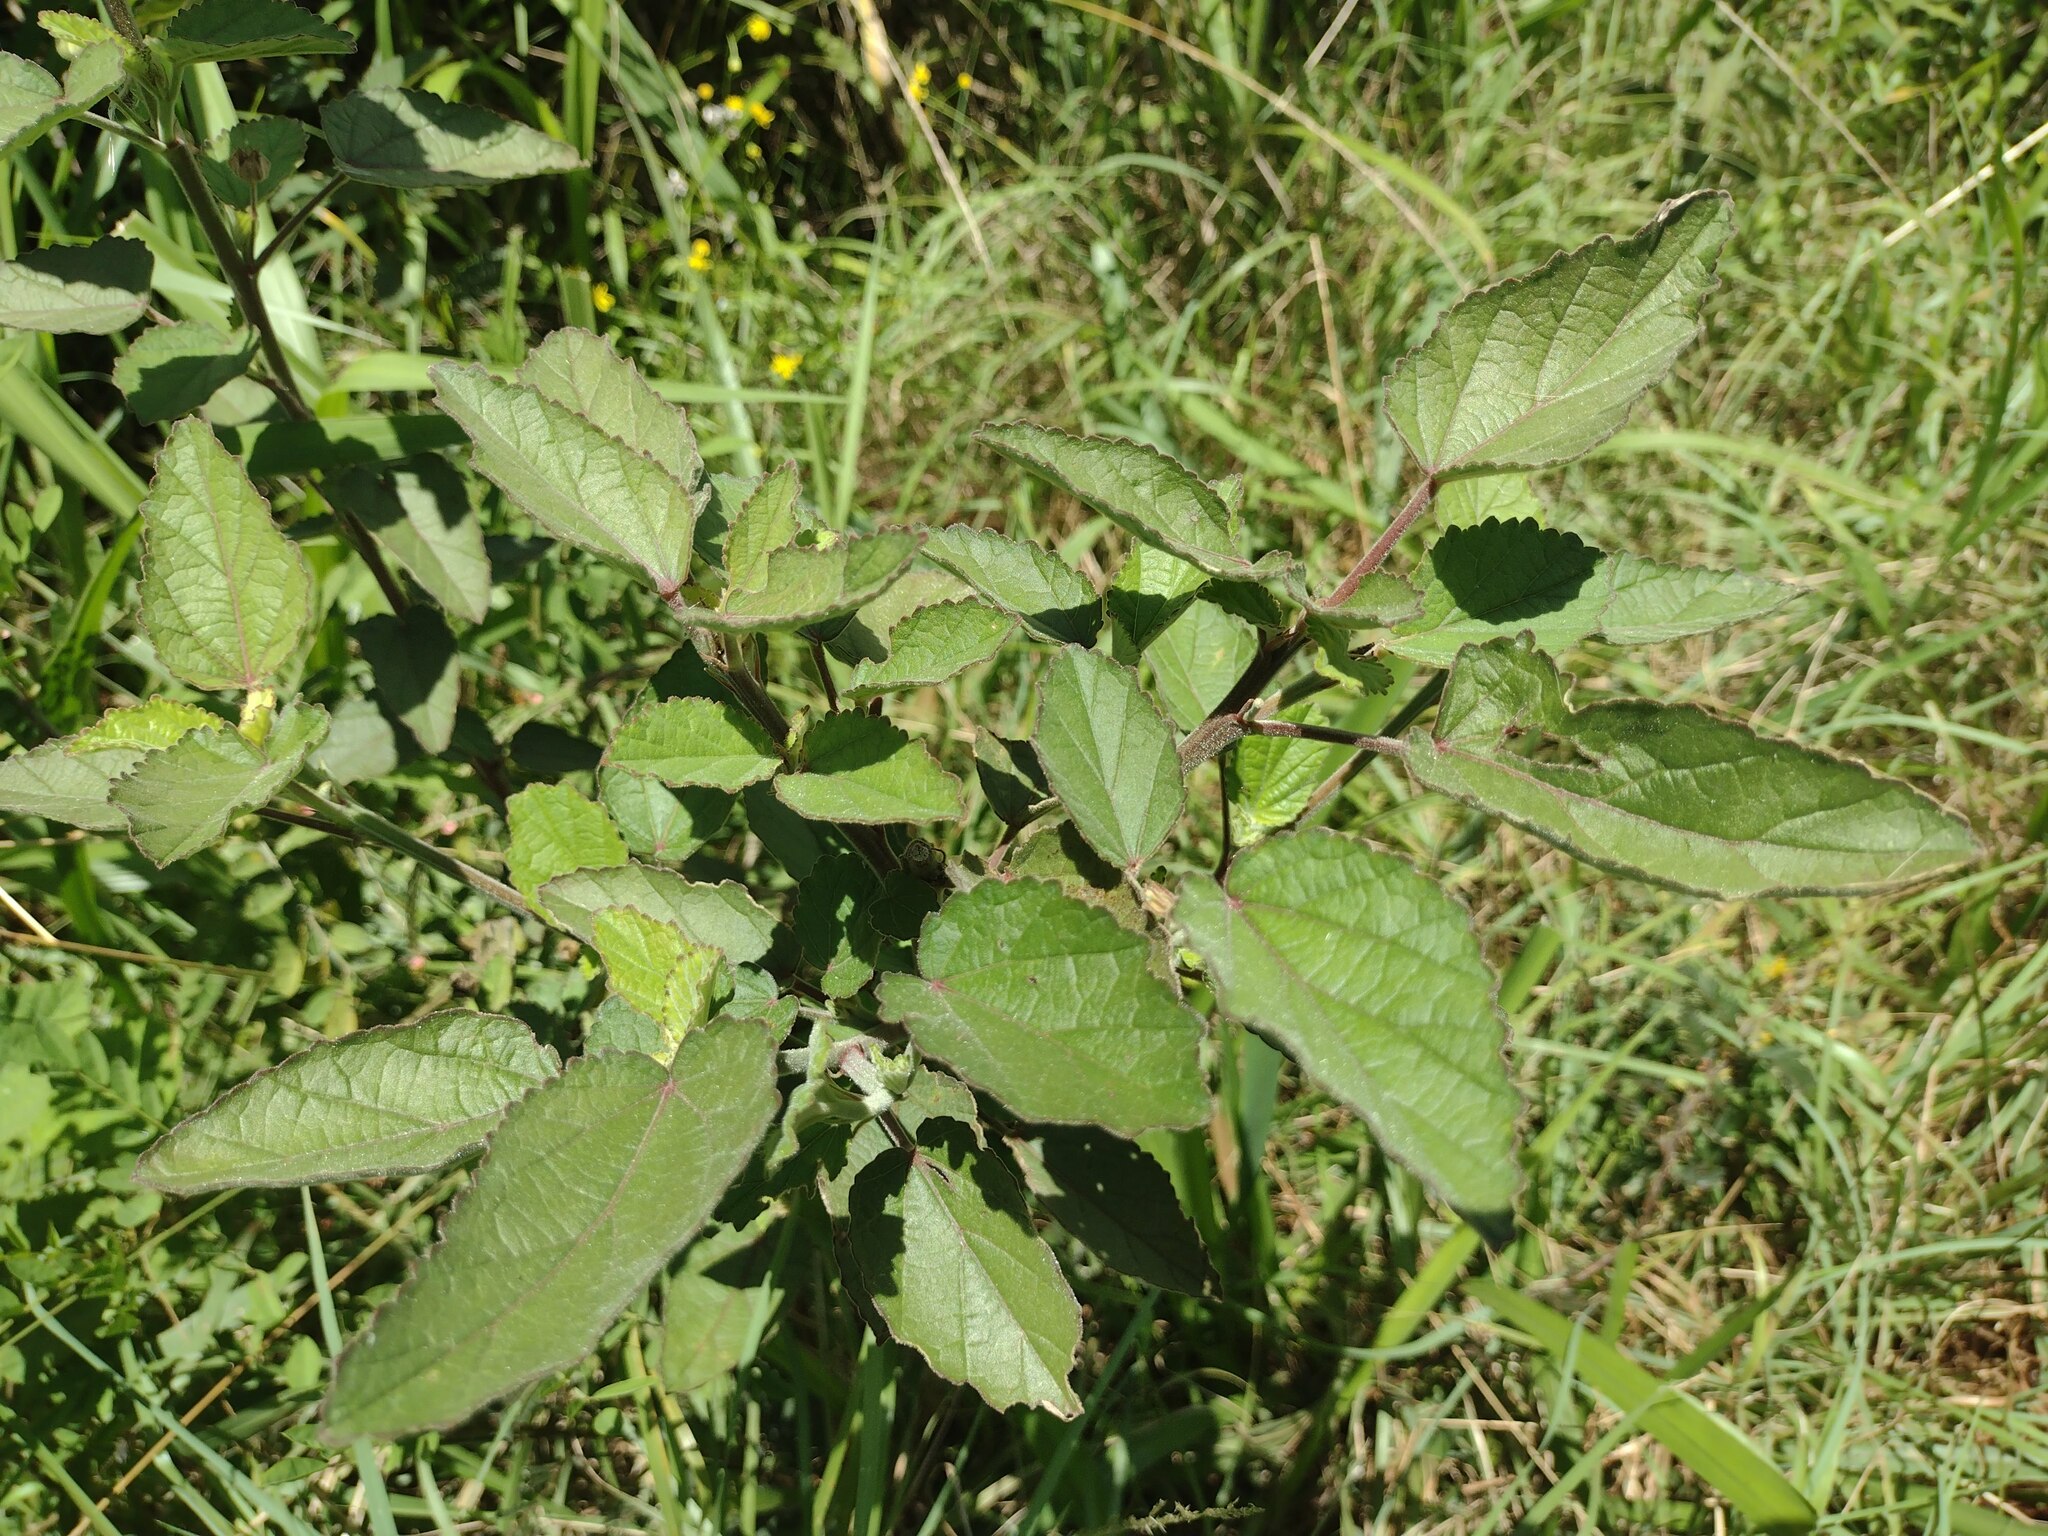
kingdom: Plantae
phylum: Tracheophyta
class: Magnoliopsida
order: Malvales
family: Malvaceae
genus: Sida
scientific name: Sida cordifolia
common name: Ilima
